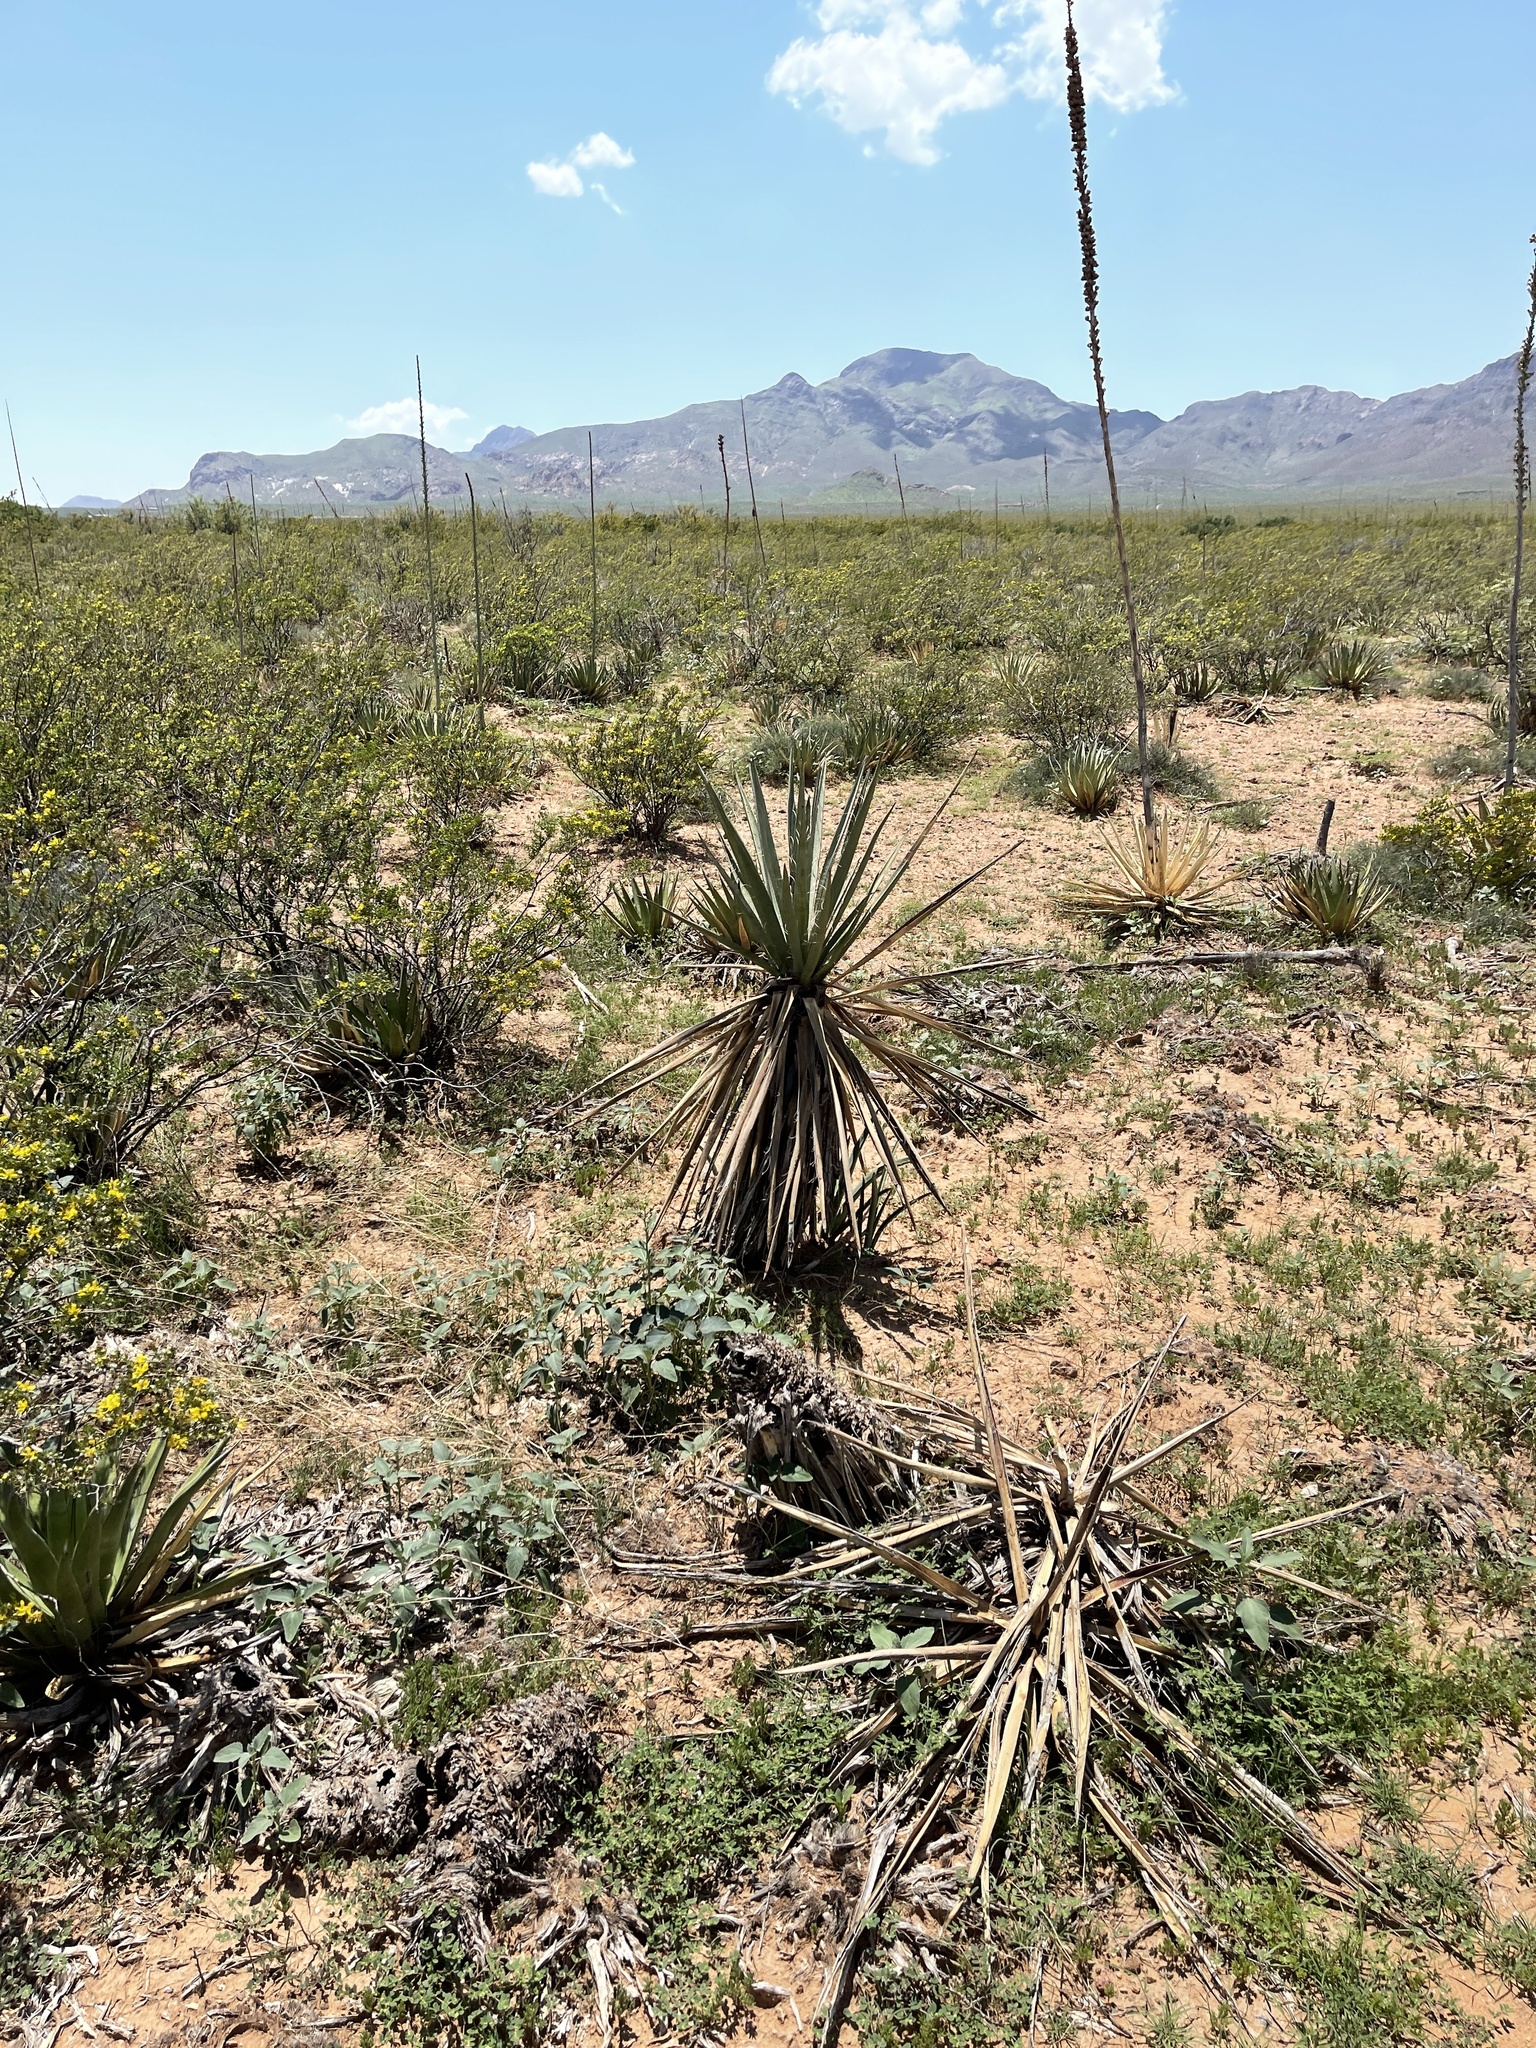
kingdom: Plantae
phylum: Tracheophyta
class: Liliopsida
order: Asparagales
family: Asparagaceae
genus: Yucca
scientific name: Yucca treculiana
